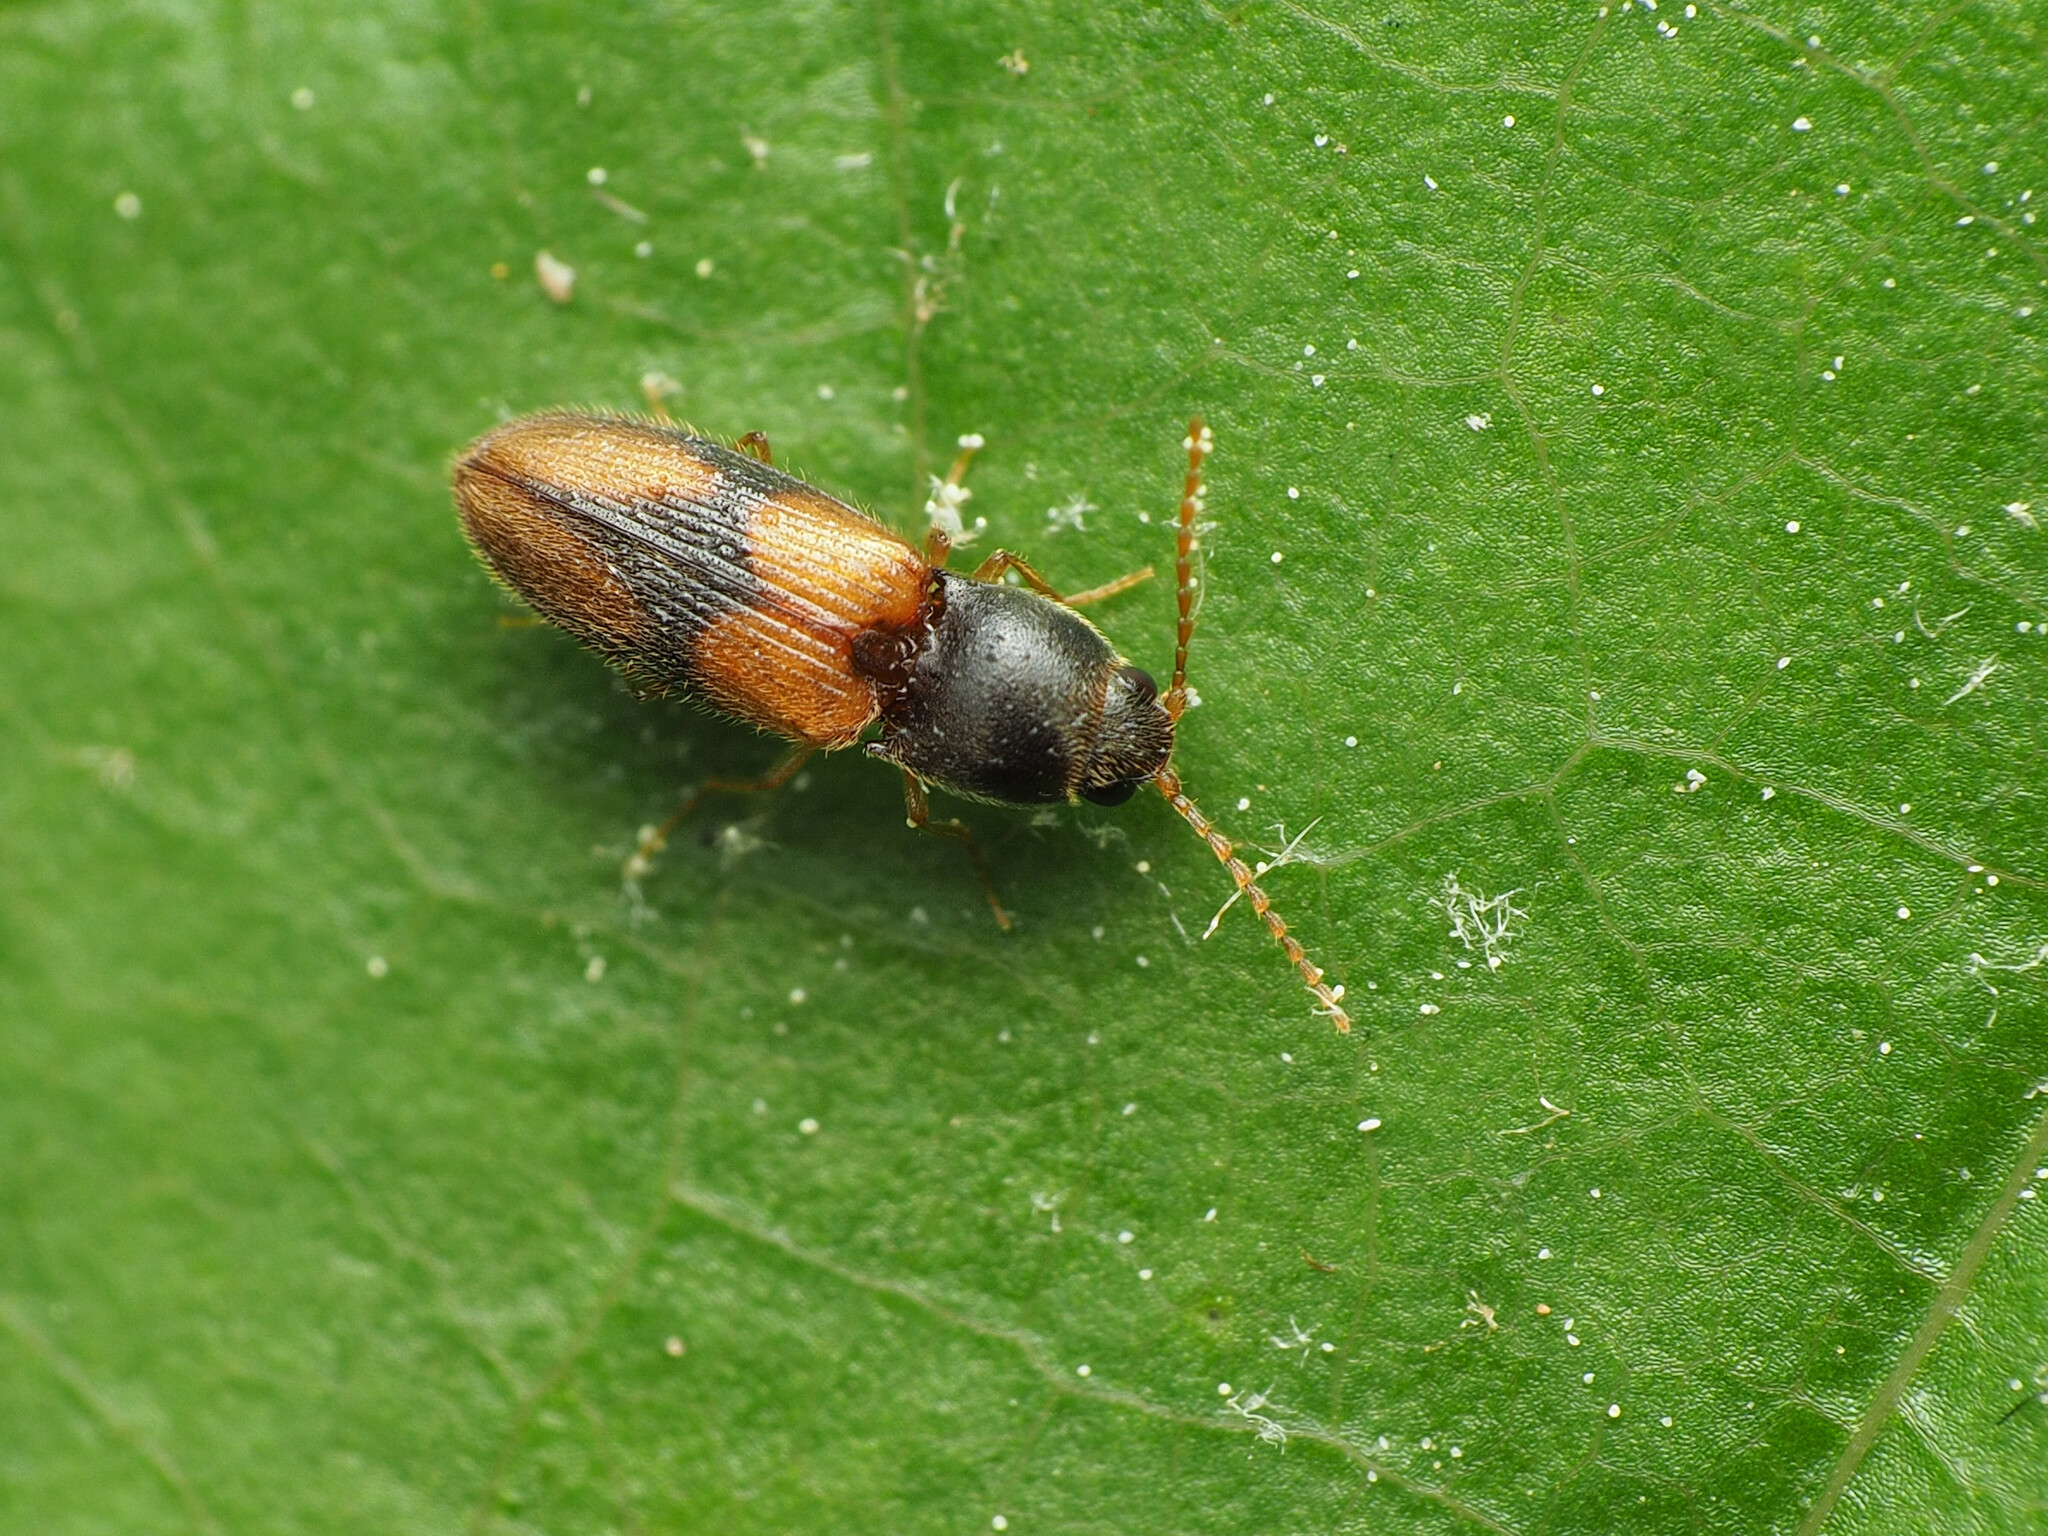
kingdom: Animalia
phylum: Arthropoda
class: Insecta
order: Coleoptera
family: Elateridae
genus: Horistonotus
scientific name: Horistonotus curiatus
